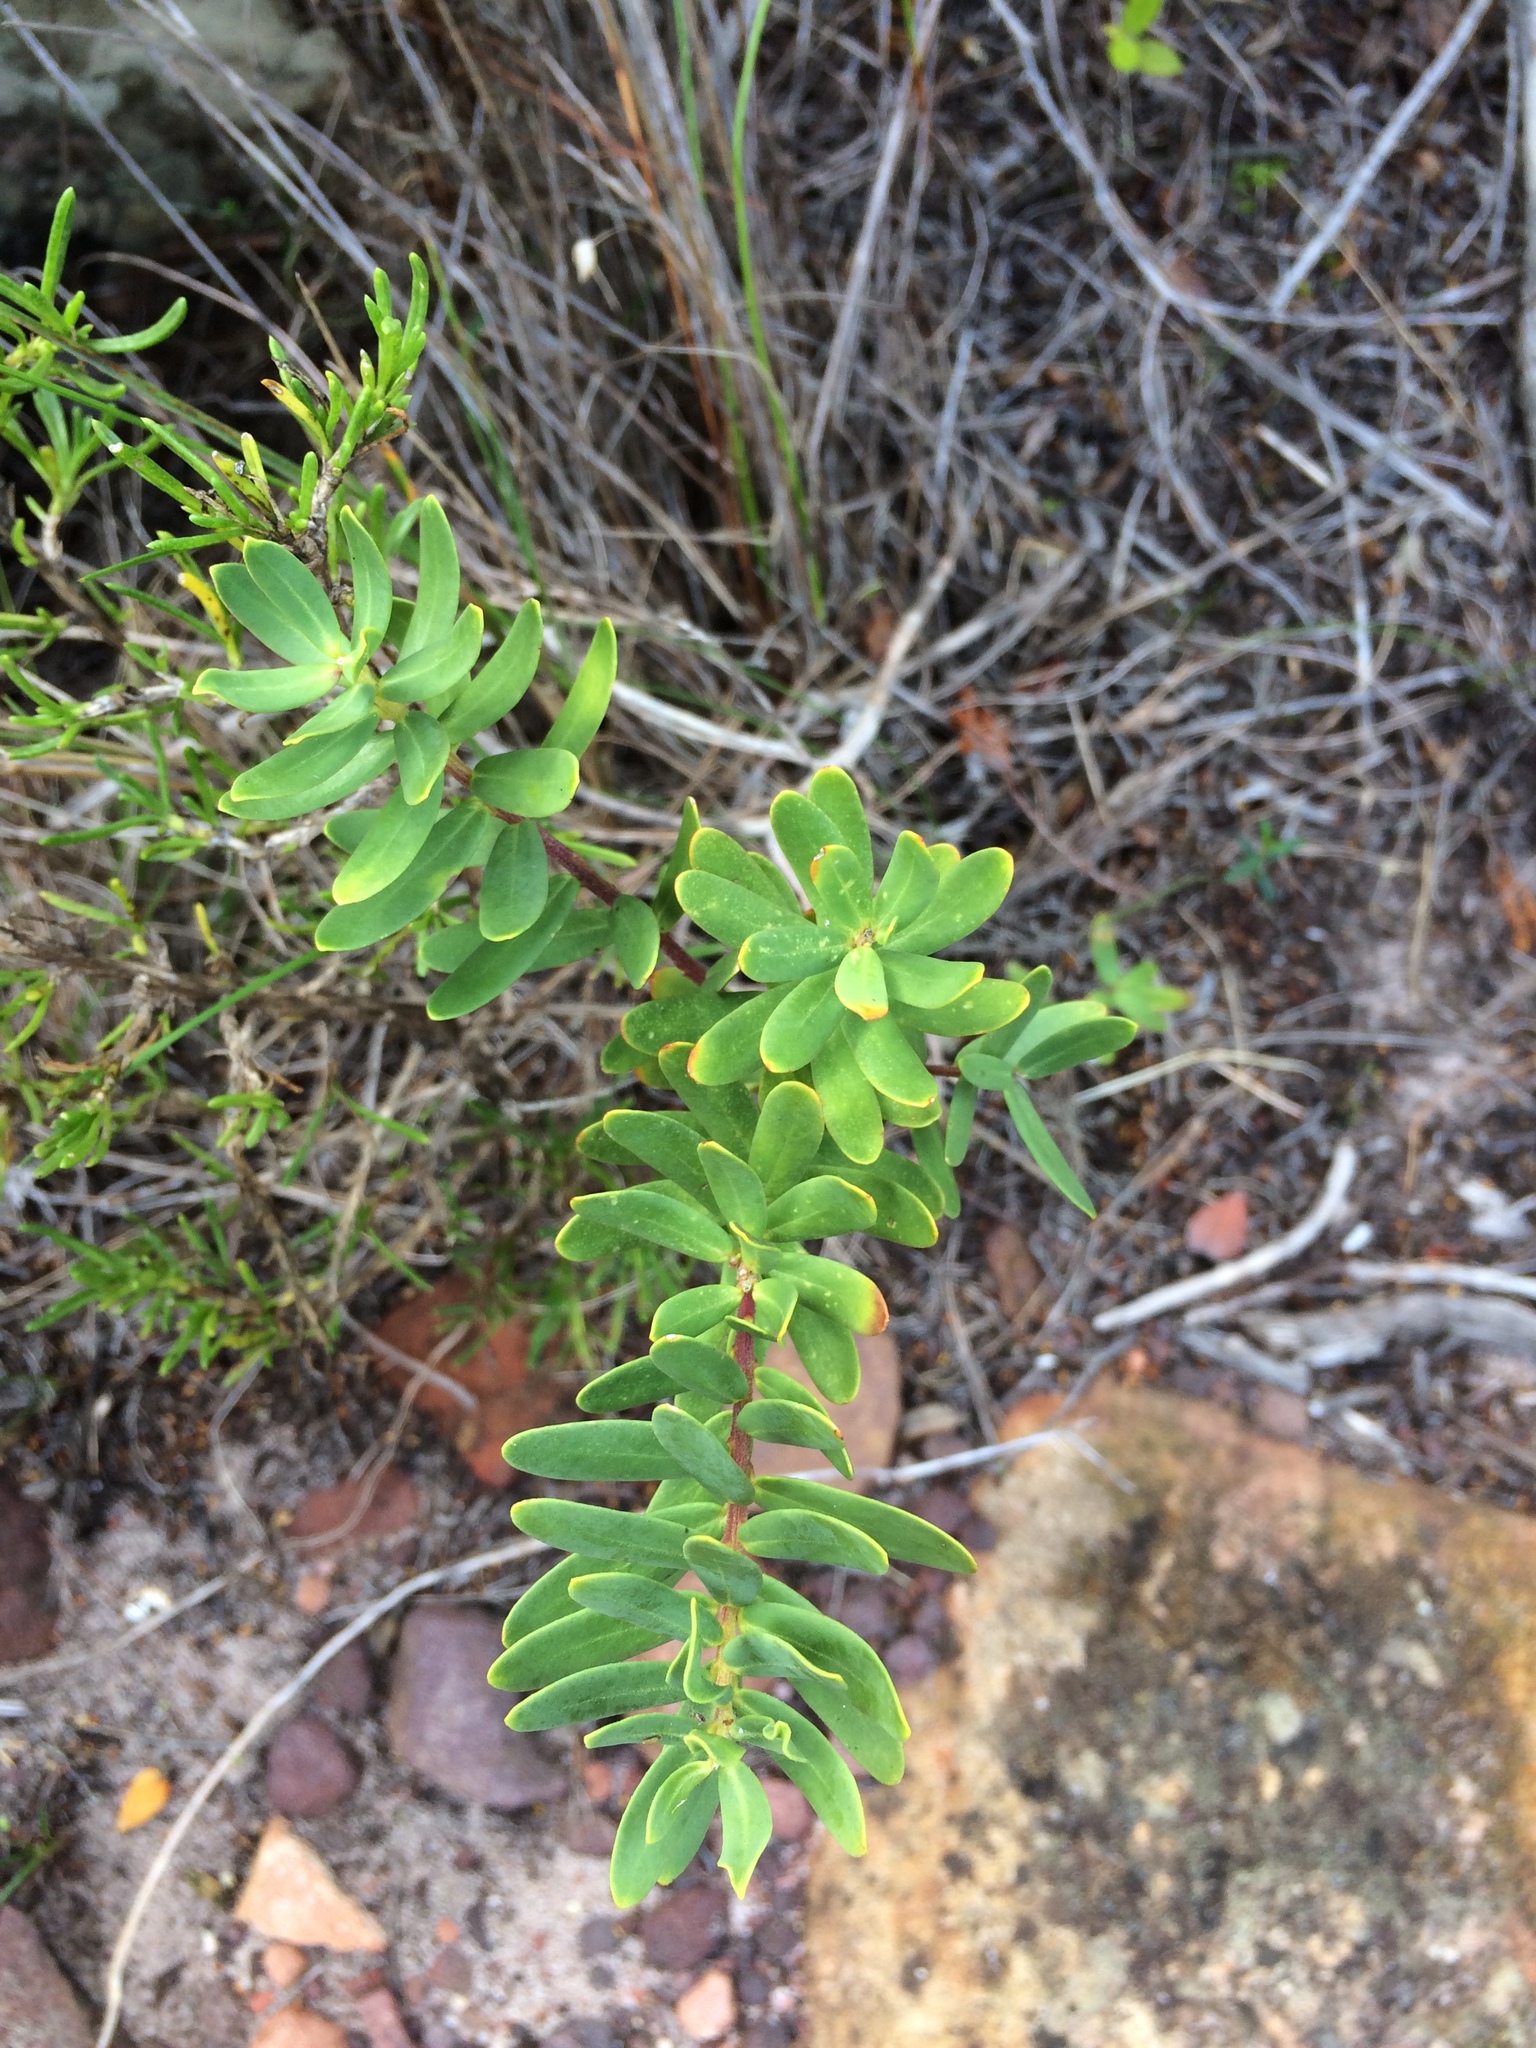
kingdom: Plantae
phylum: Tracheophyta
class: Magnoliopsida
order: Fabales
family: Polygalaceae
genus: Polygala
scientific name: Polygala myrtifolia
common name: Myrtle-leaf milkwort
